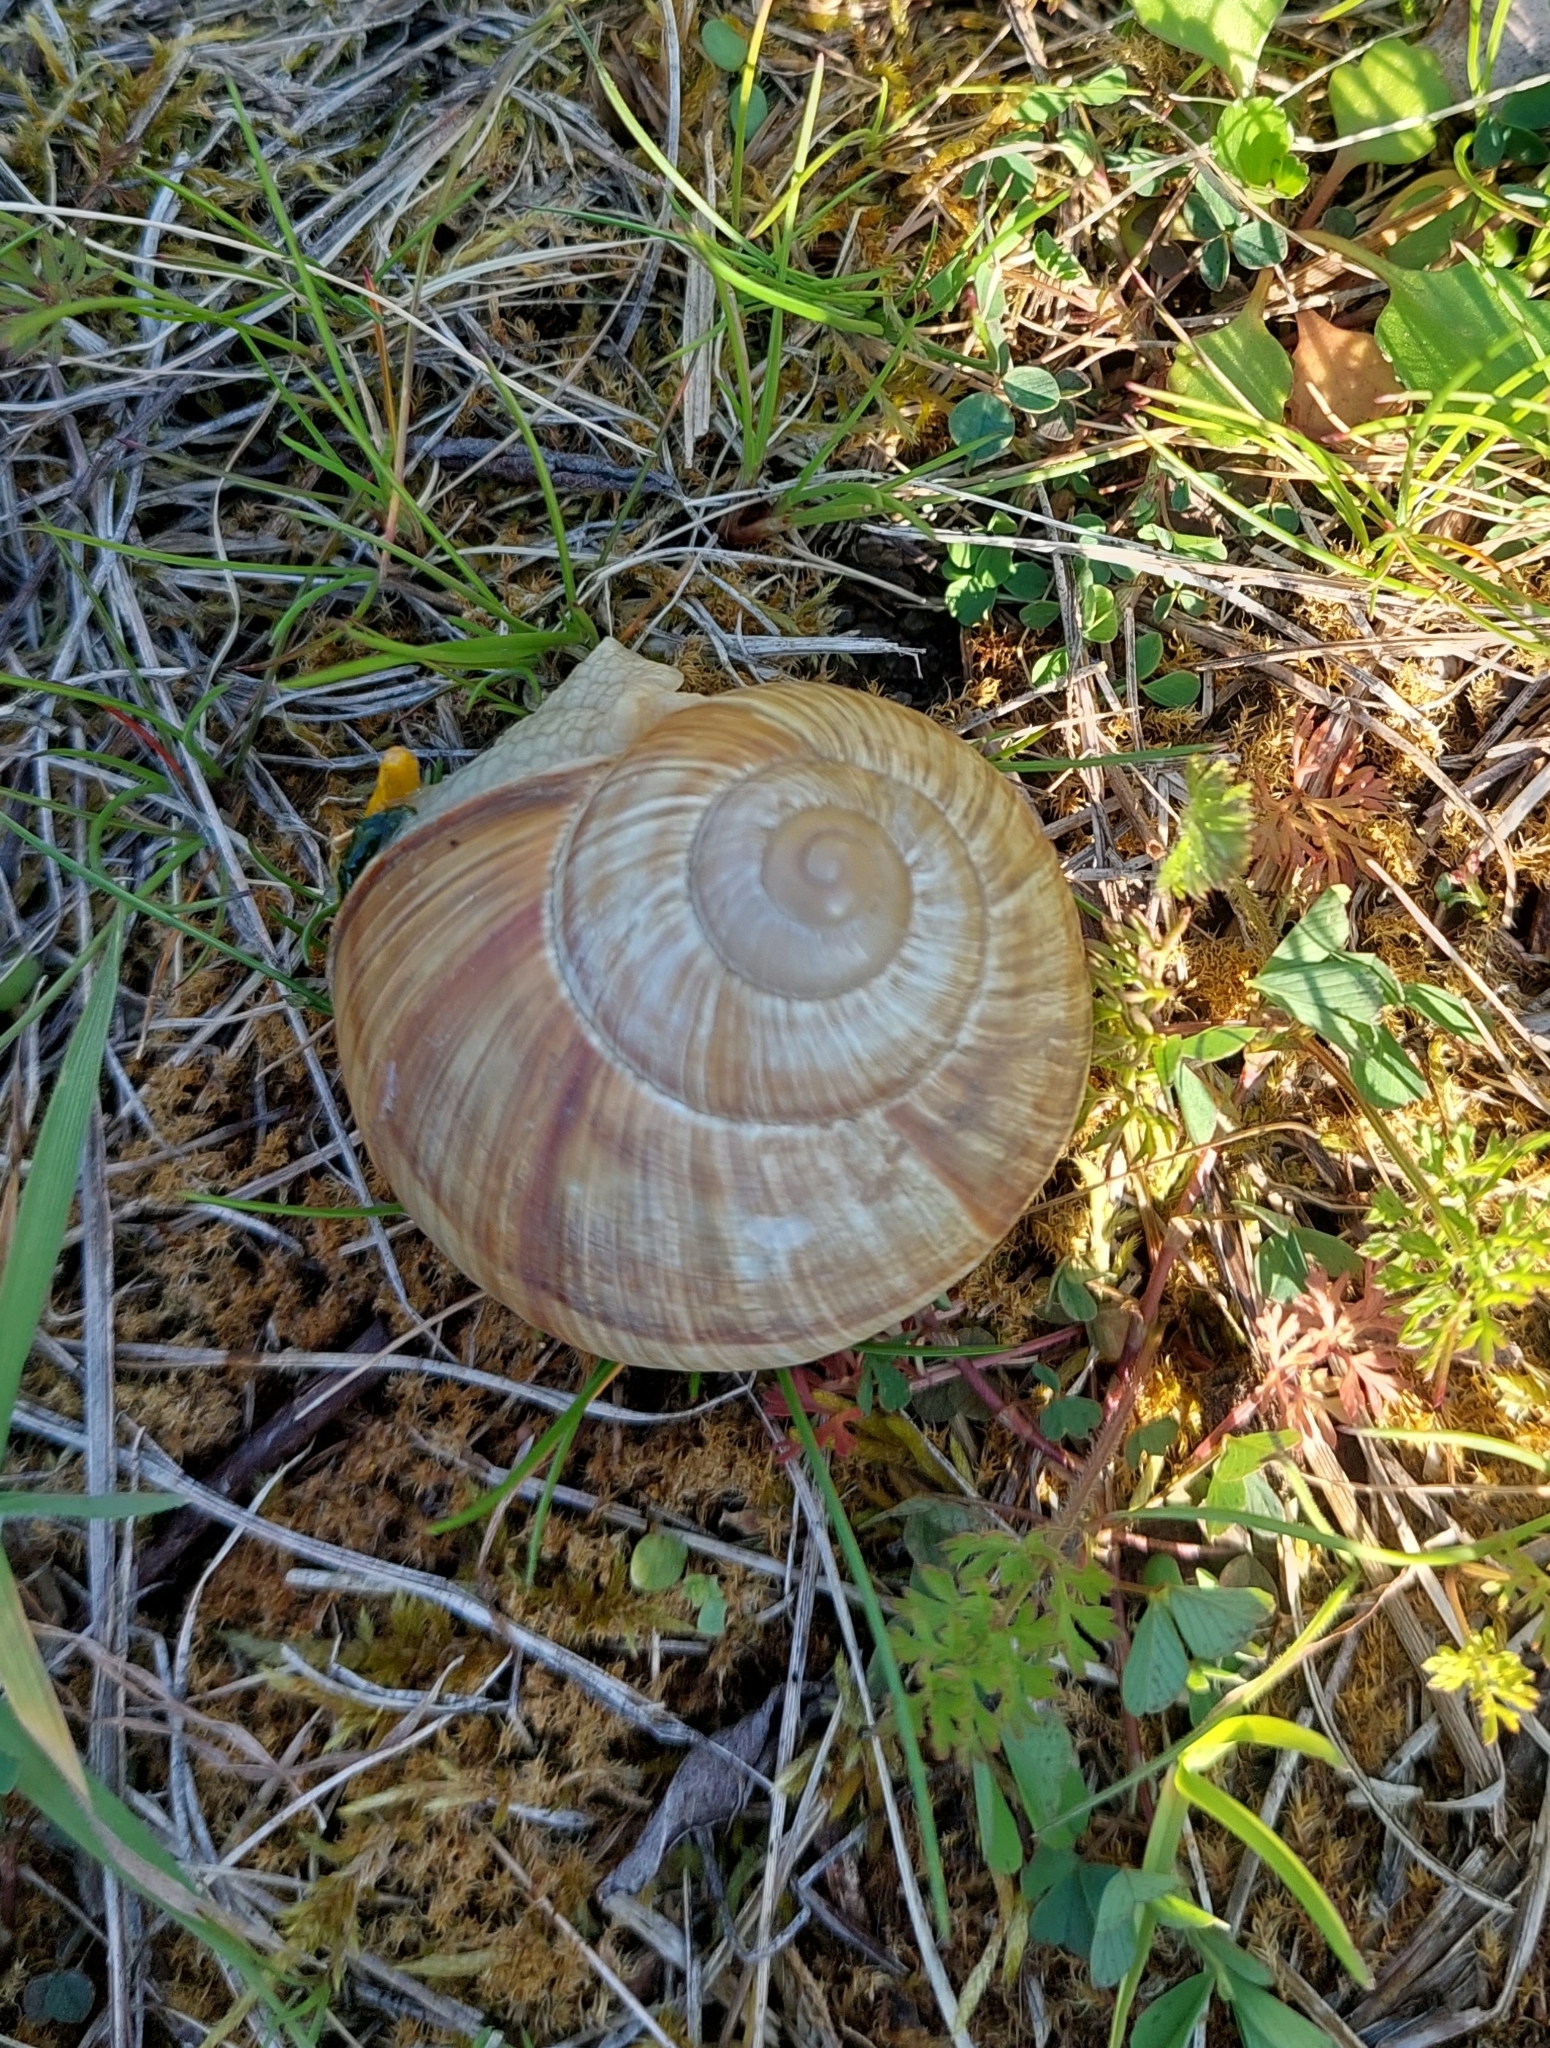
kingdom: Animalia
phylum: Mollusca
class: Gastropoda
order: Stylommatophora
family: Helicidae
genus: Helix
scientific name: Helix pomatia
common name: Roman snail
